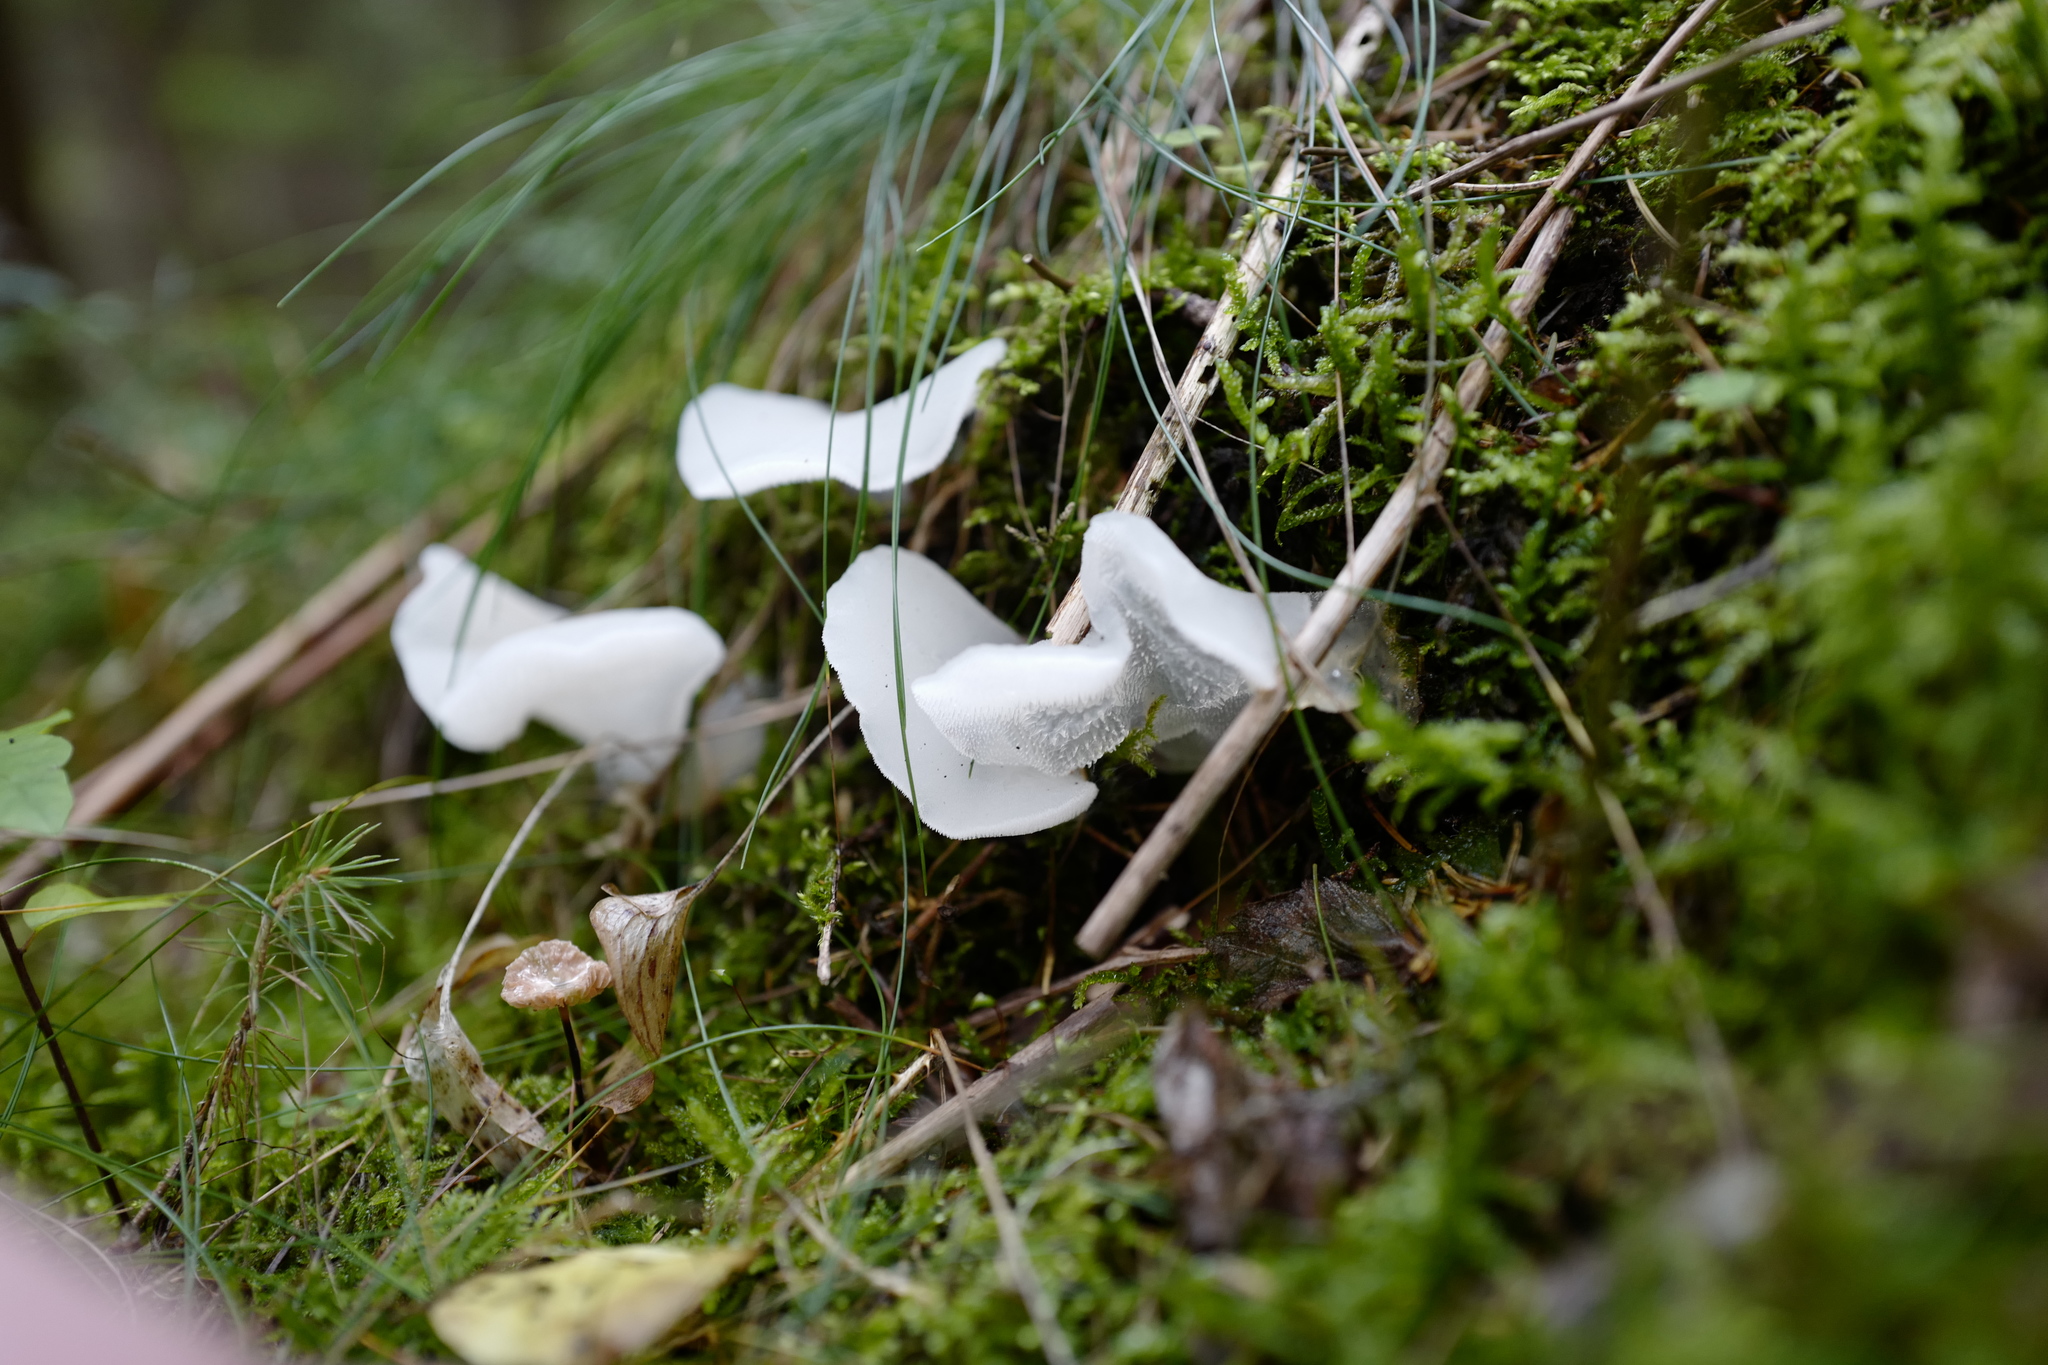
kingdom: Fungi
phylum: Basidiomycota
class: Agaricomycetes
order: Auriculariales
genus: Pseudohydnum
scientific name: Pseudohydnum gelatinosum
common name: Jelly tongue
